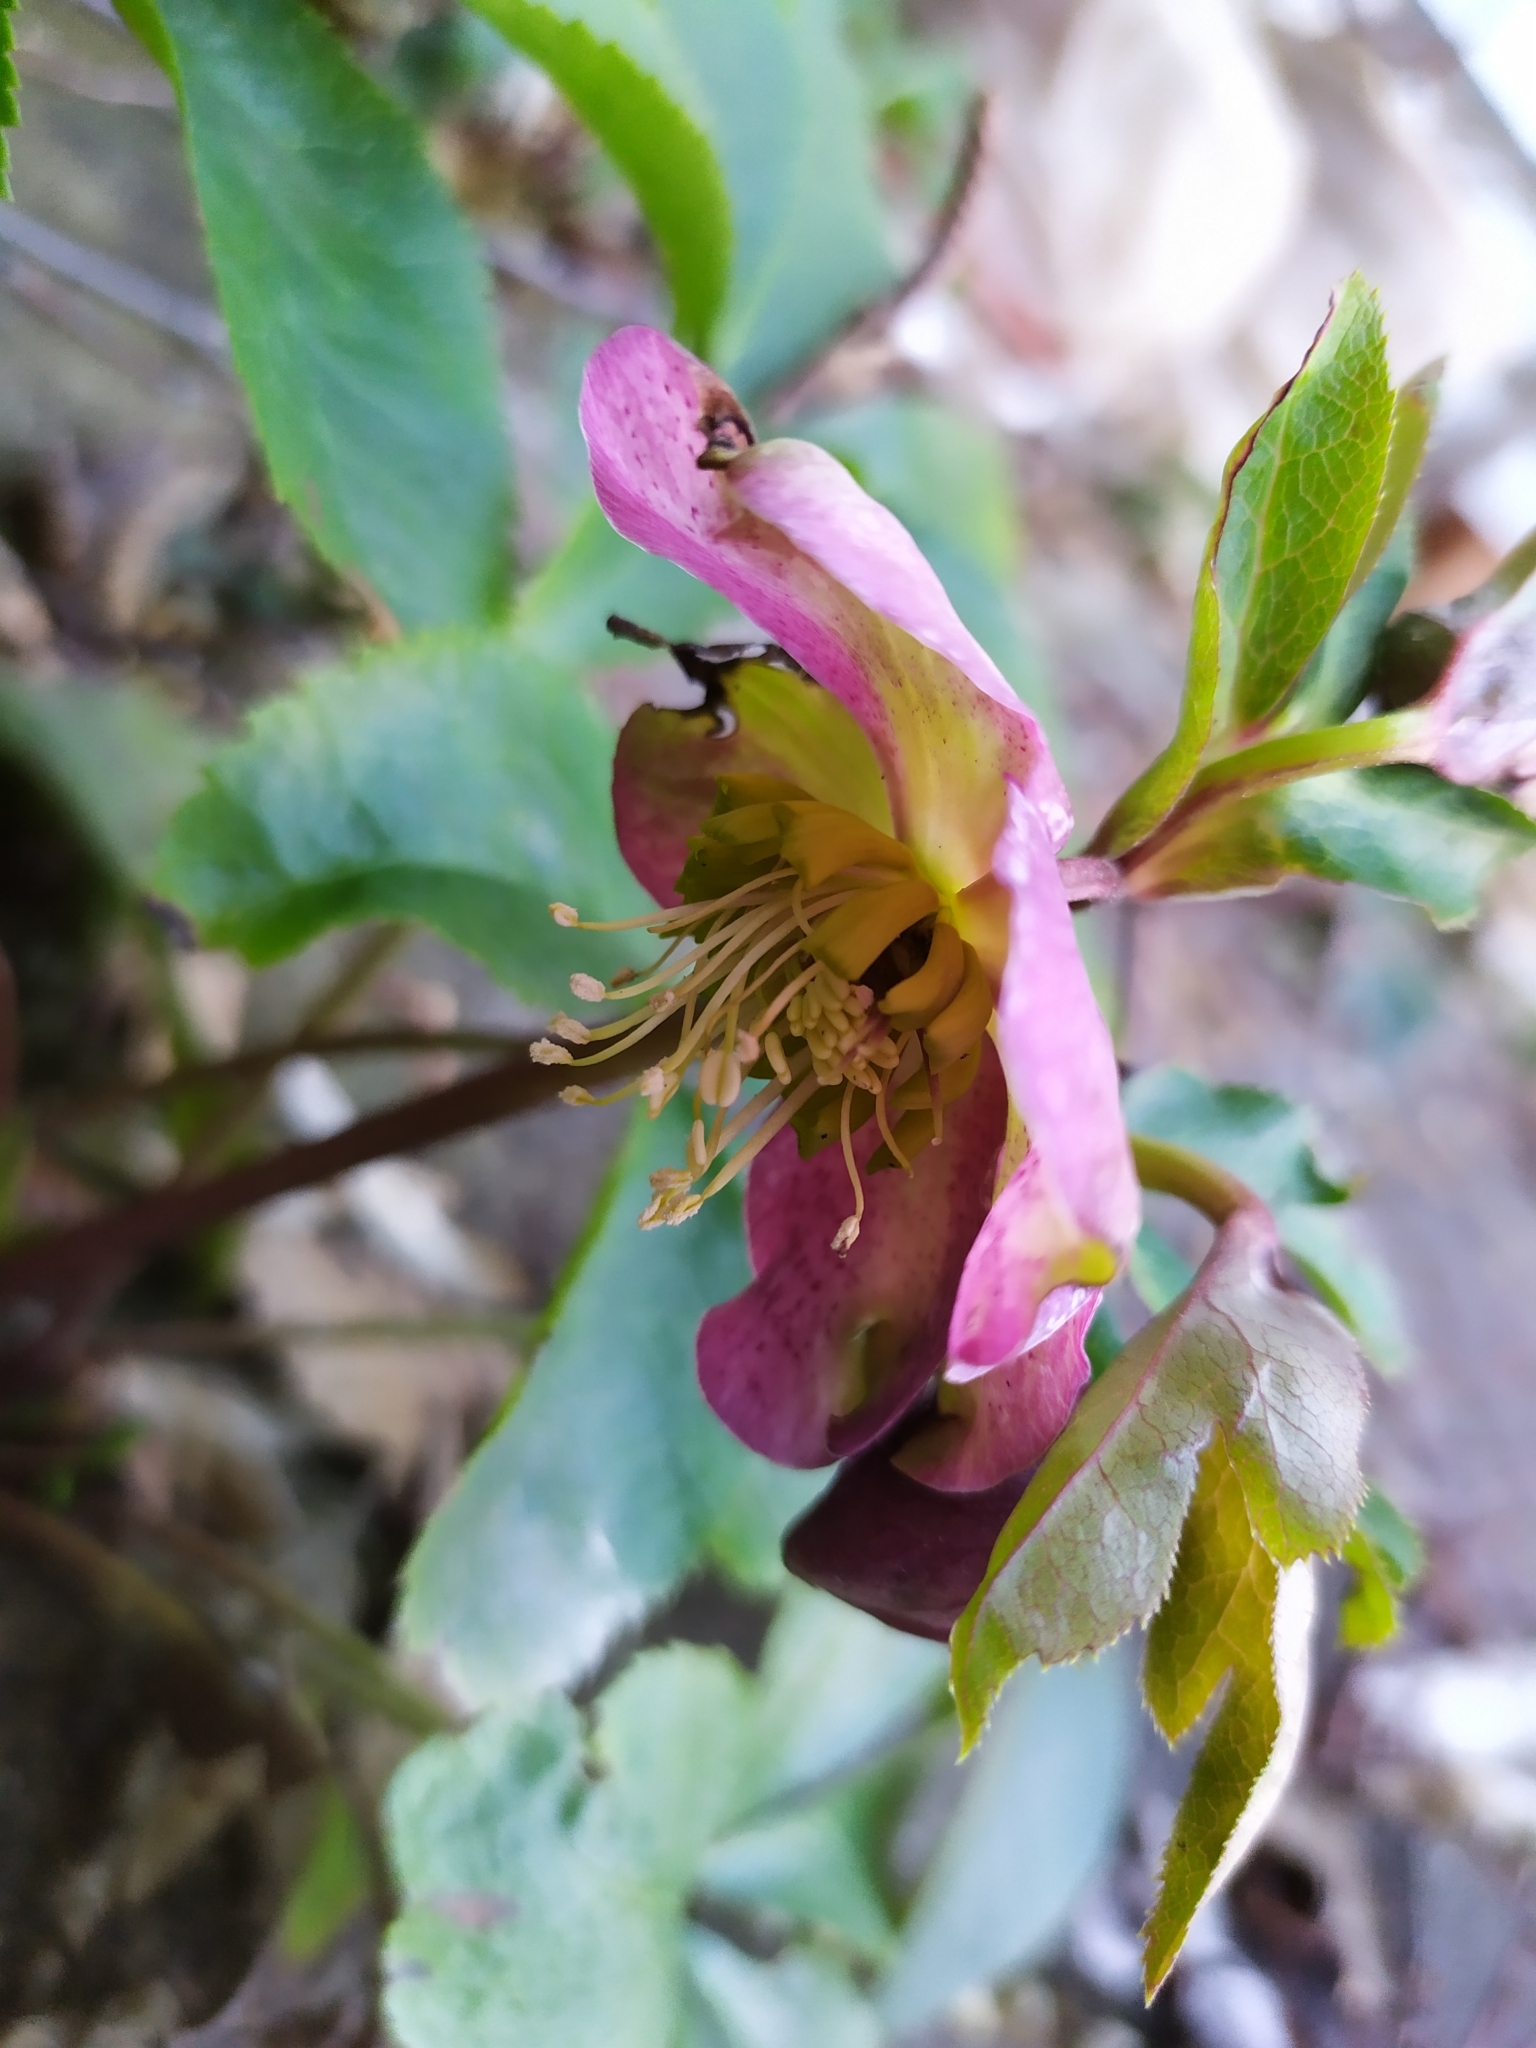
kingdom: Plantae
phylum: Tracheophyta
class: Magnoliopsida
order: Ranunculales
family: Ranunculaceae
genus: Helleborus
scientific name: Helleborus hybridus
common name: Hybrid lenten-rose
